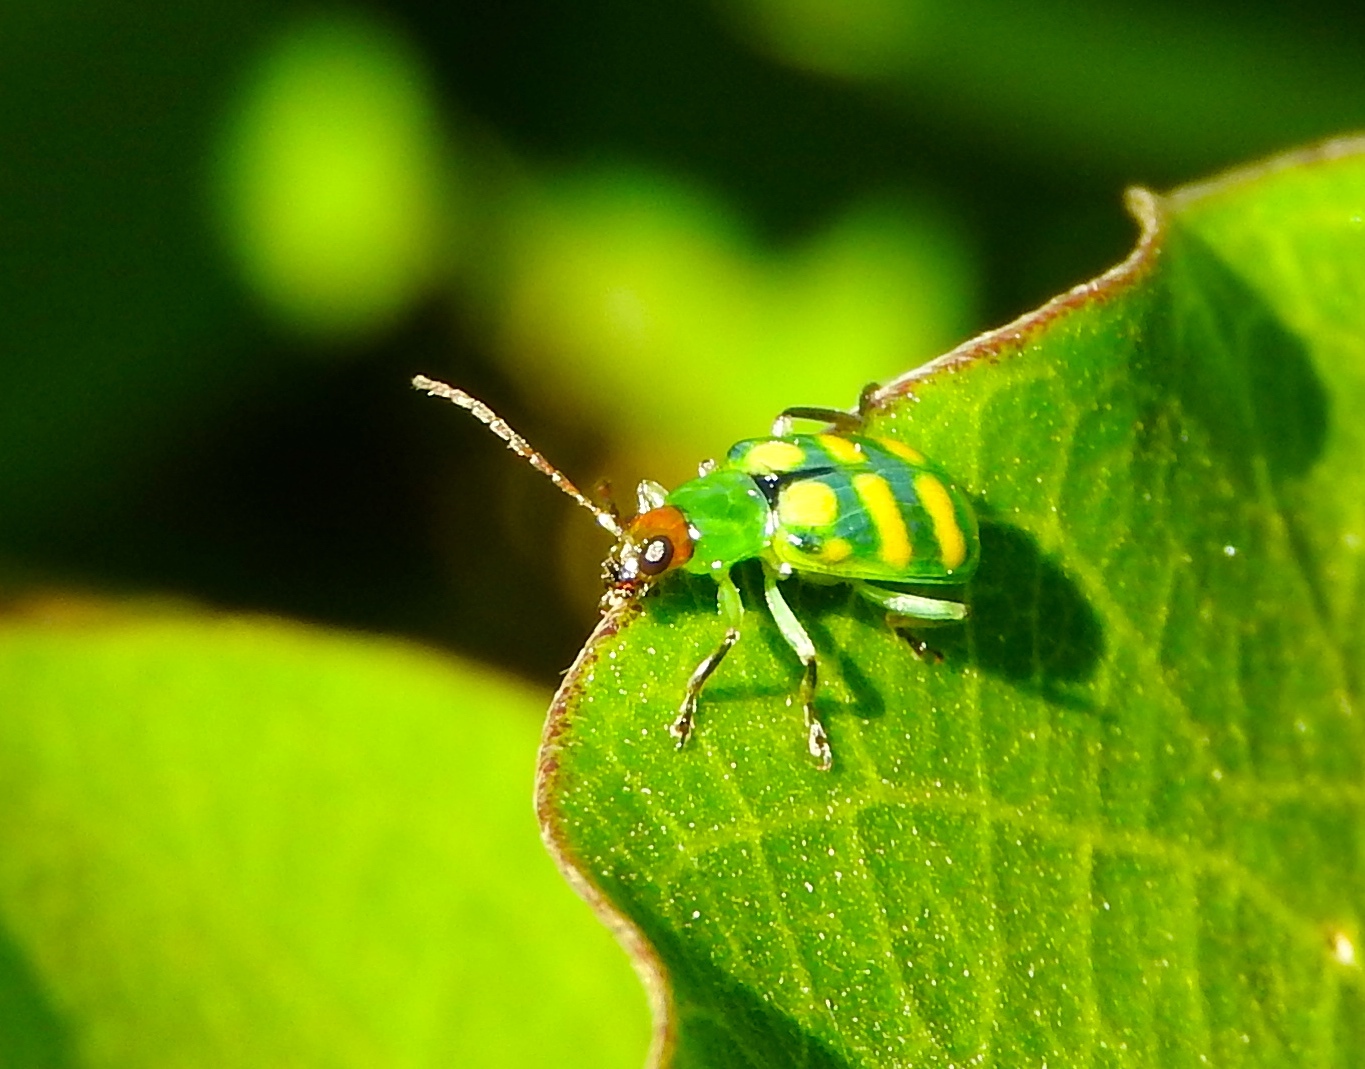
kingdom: Animalia
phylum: Arthropoda
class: Insecta
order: Coleoptera
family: Chrysomelidae
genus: Diabrotica
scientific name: Diabrotica balteata
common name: Leaf beetle
